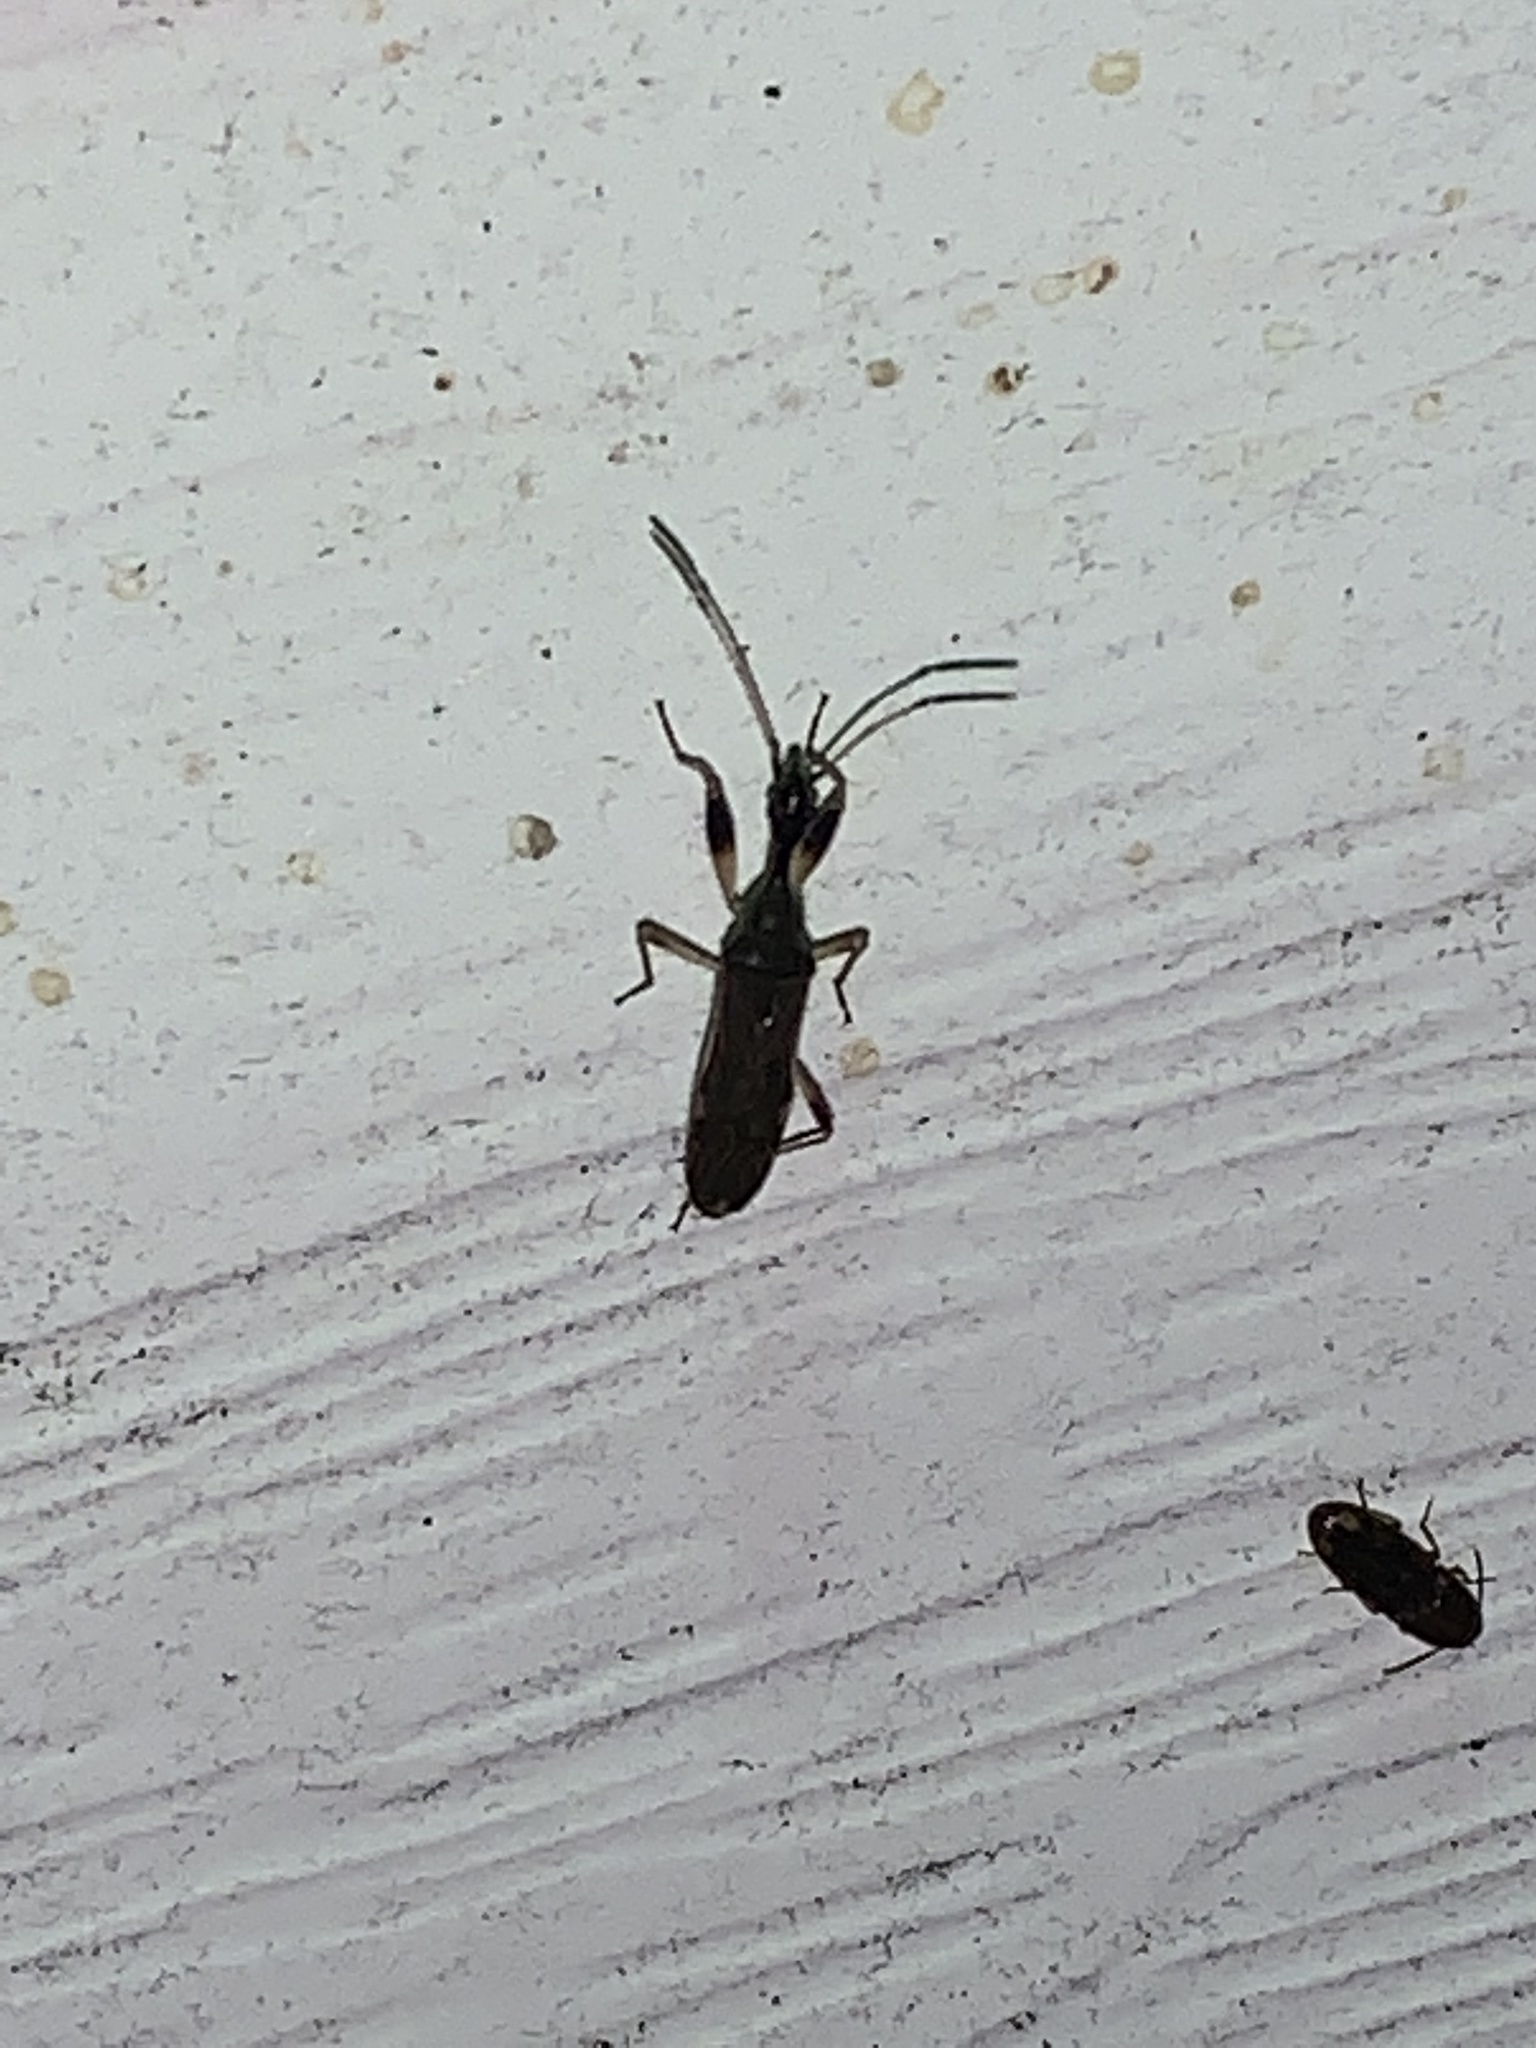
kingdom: Animalia
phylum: Arthropoda
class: Insecta
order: Hemiptera
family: Rhyparochromidae
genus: Myodocha
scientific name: Myodocha serripes
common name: Long-necked seed bug
